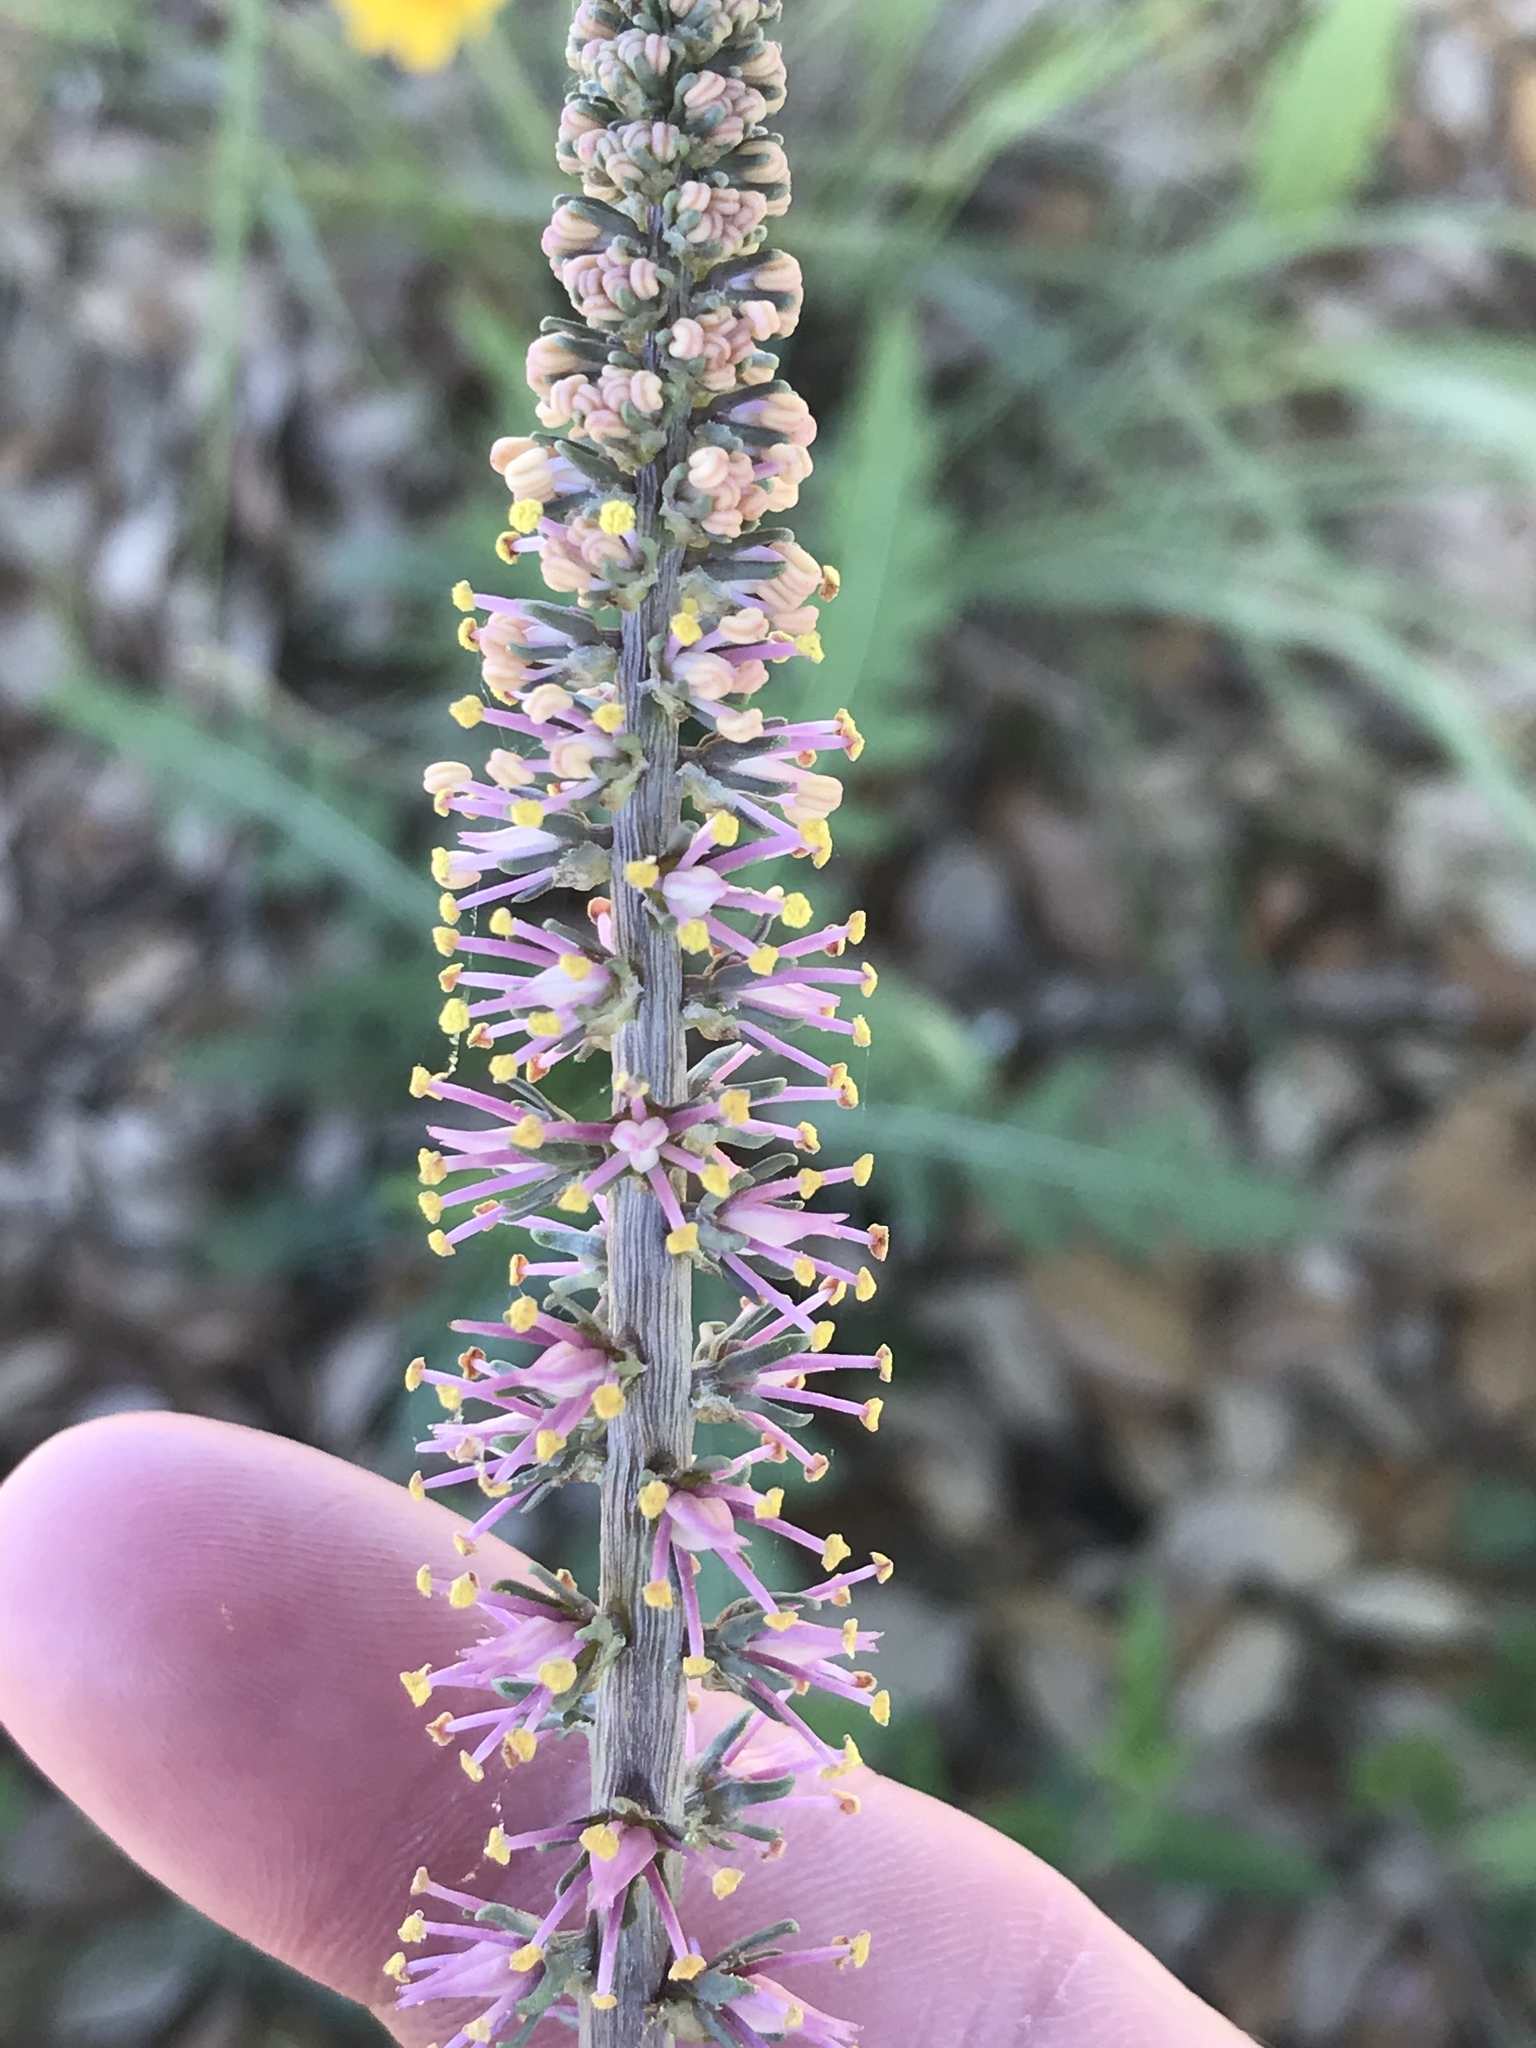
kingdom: Plantae
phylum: Tracheophyta
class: Liliopsida
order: Liliales
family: Melanthiaceae
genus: Schoenocaulon
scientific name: Schoenocaulon texanum
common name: Texas feather-shank
